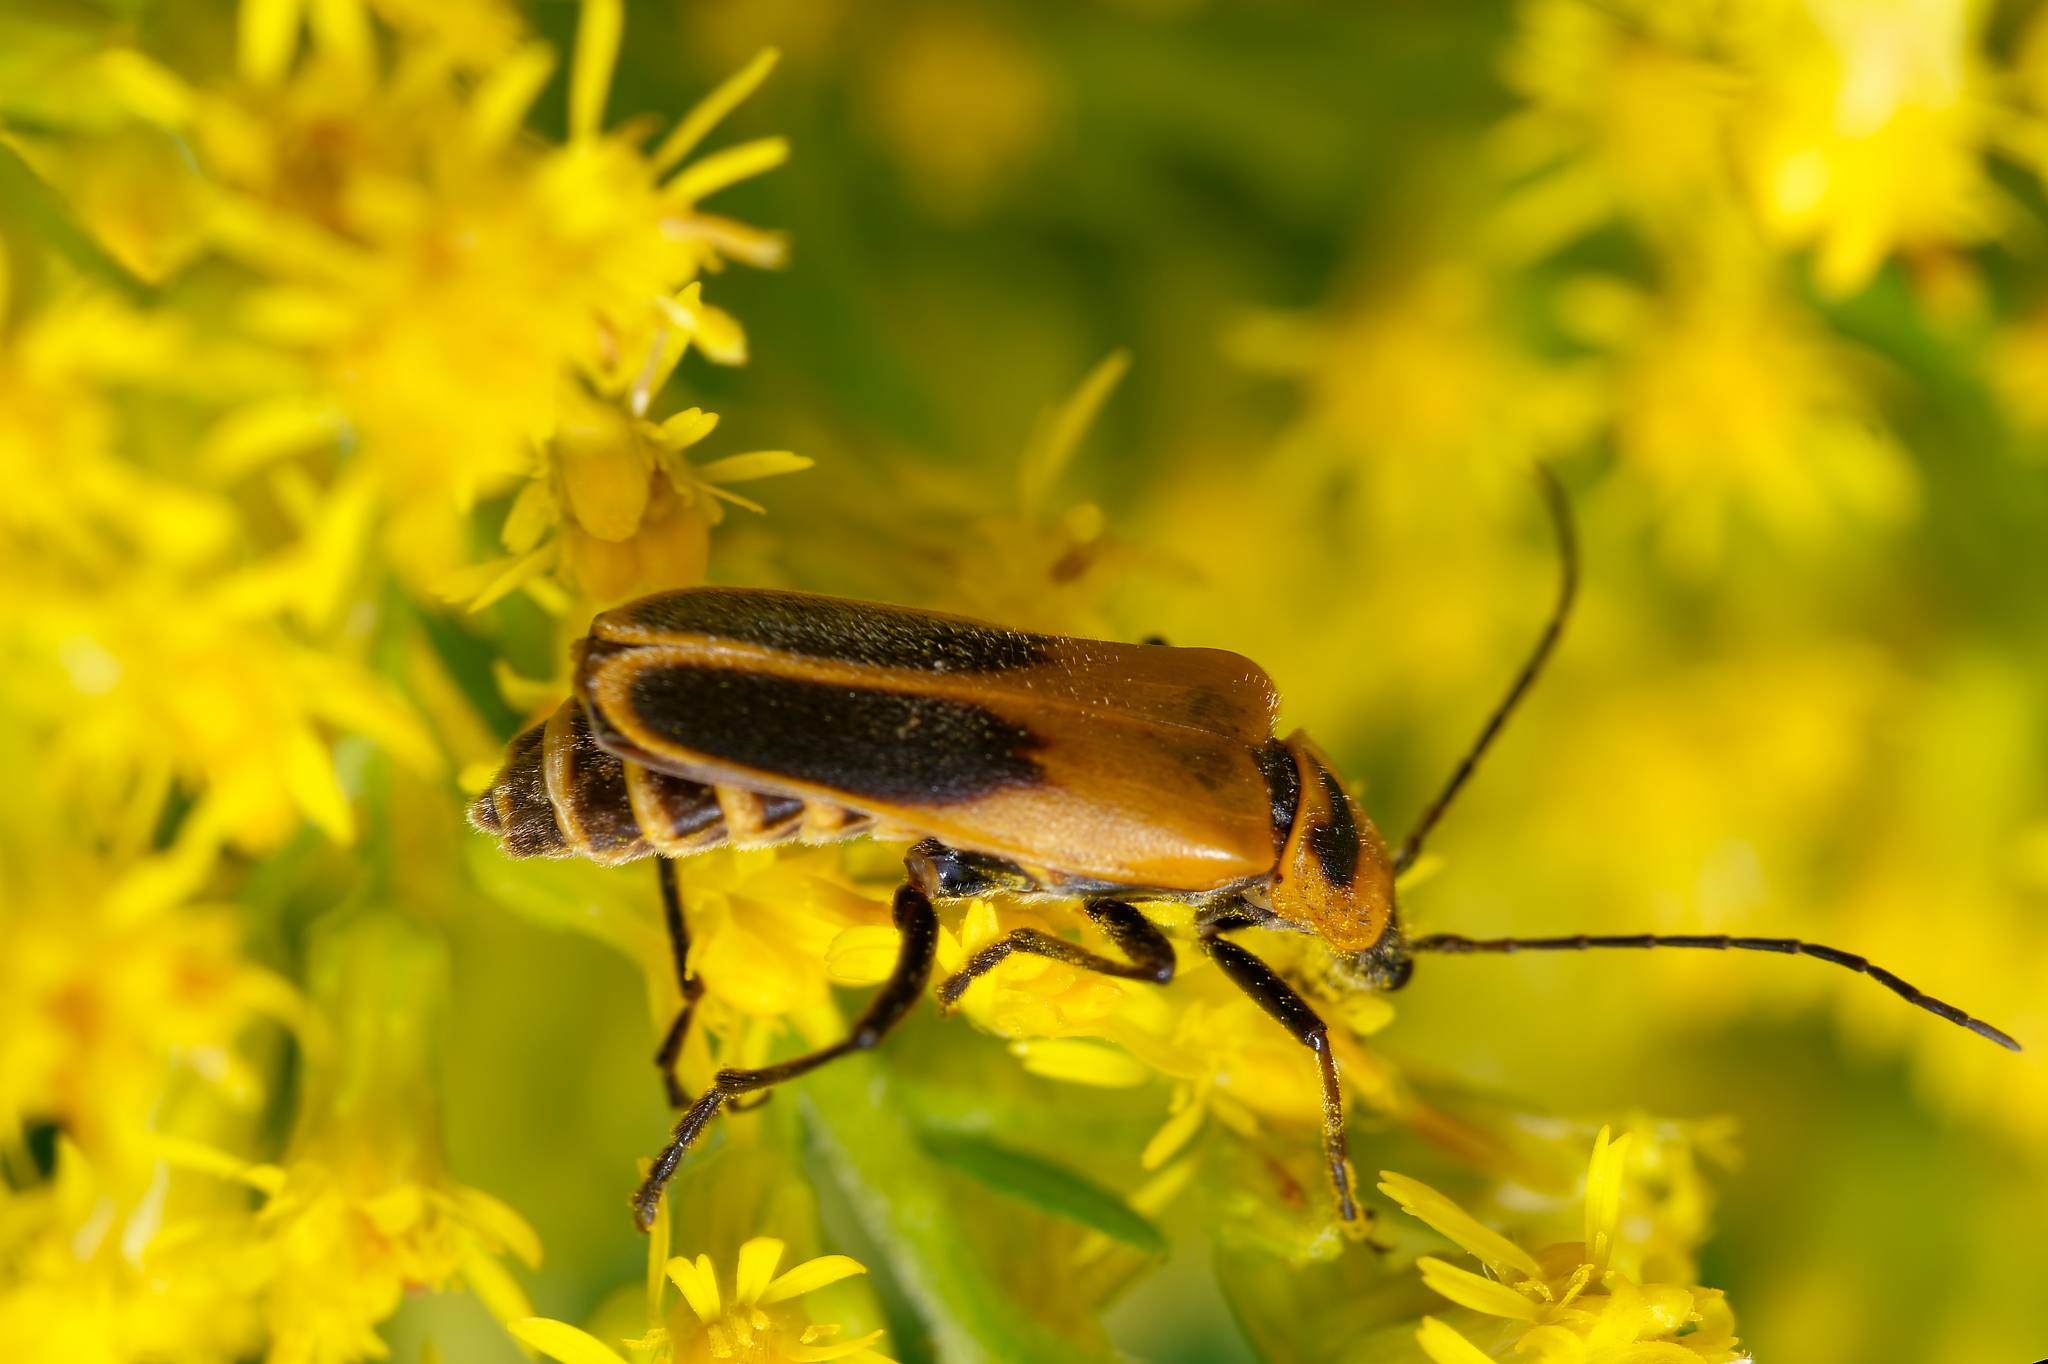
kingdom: Animalia
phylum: Arthropoda
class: Insecta
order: Coleoptera
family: Cantharidae
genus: Chauliognathus
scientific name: Chauliognathus pensylvanicus
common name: Goldenrod soldier beetle
